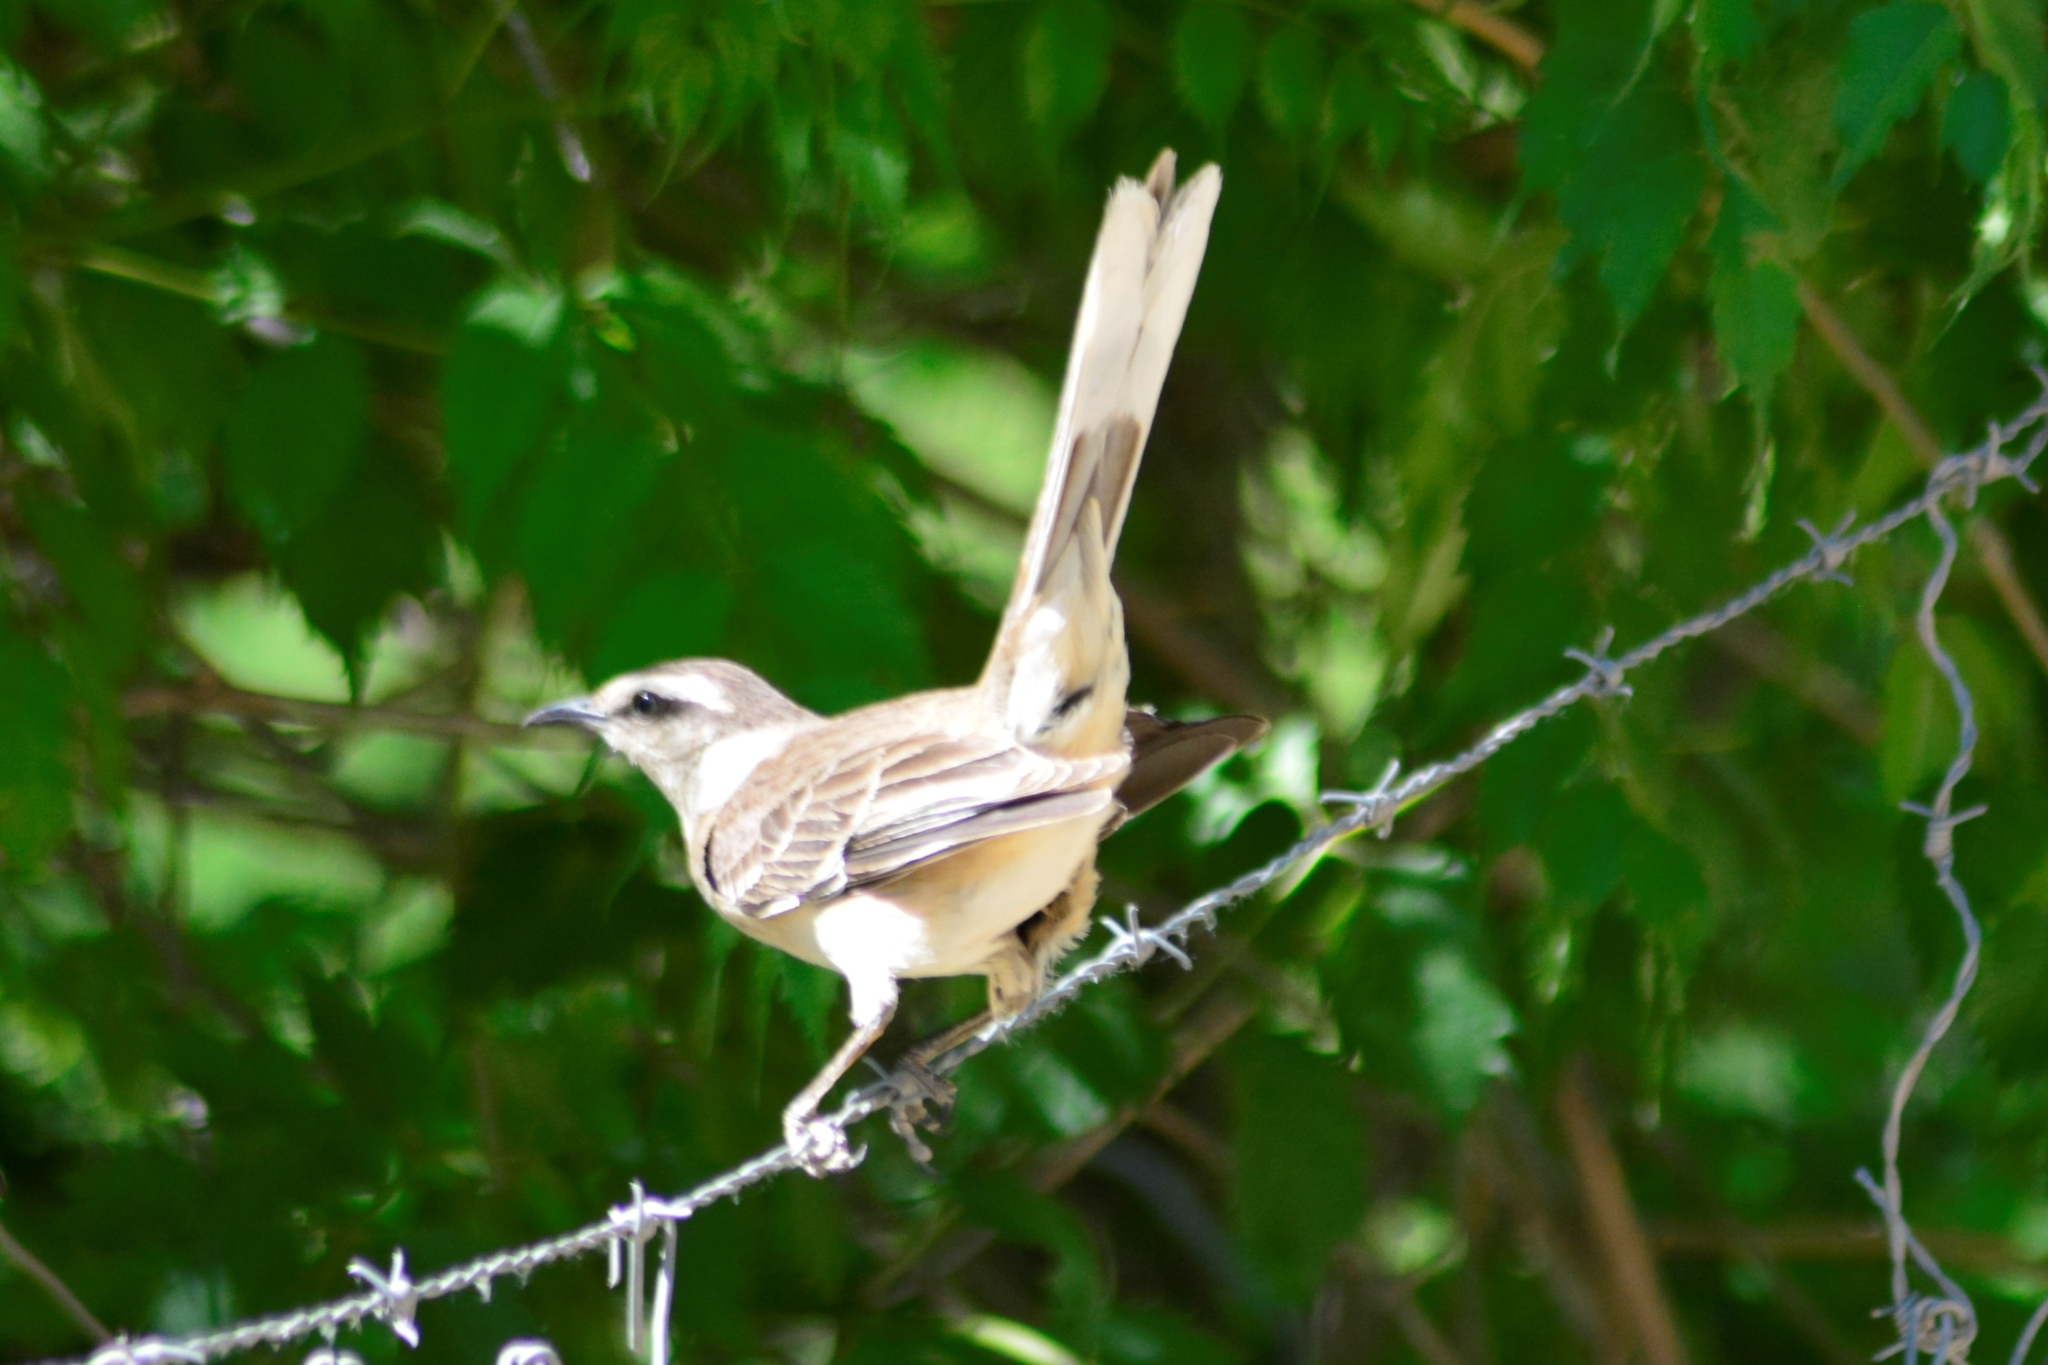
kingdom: Animalia
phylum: Chordata
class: Aves
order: Passeriformes
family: Mimidae
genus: Mimus
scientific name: Mimus saturninus
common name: Chalk-browed mockingbird
